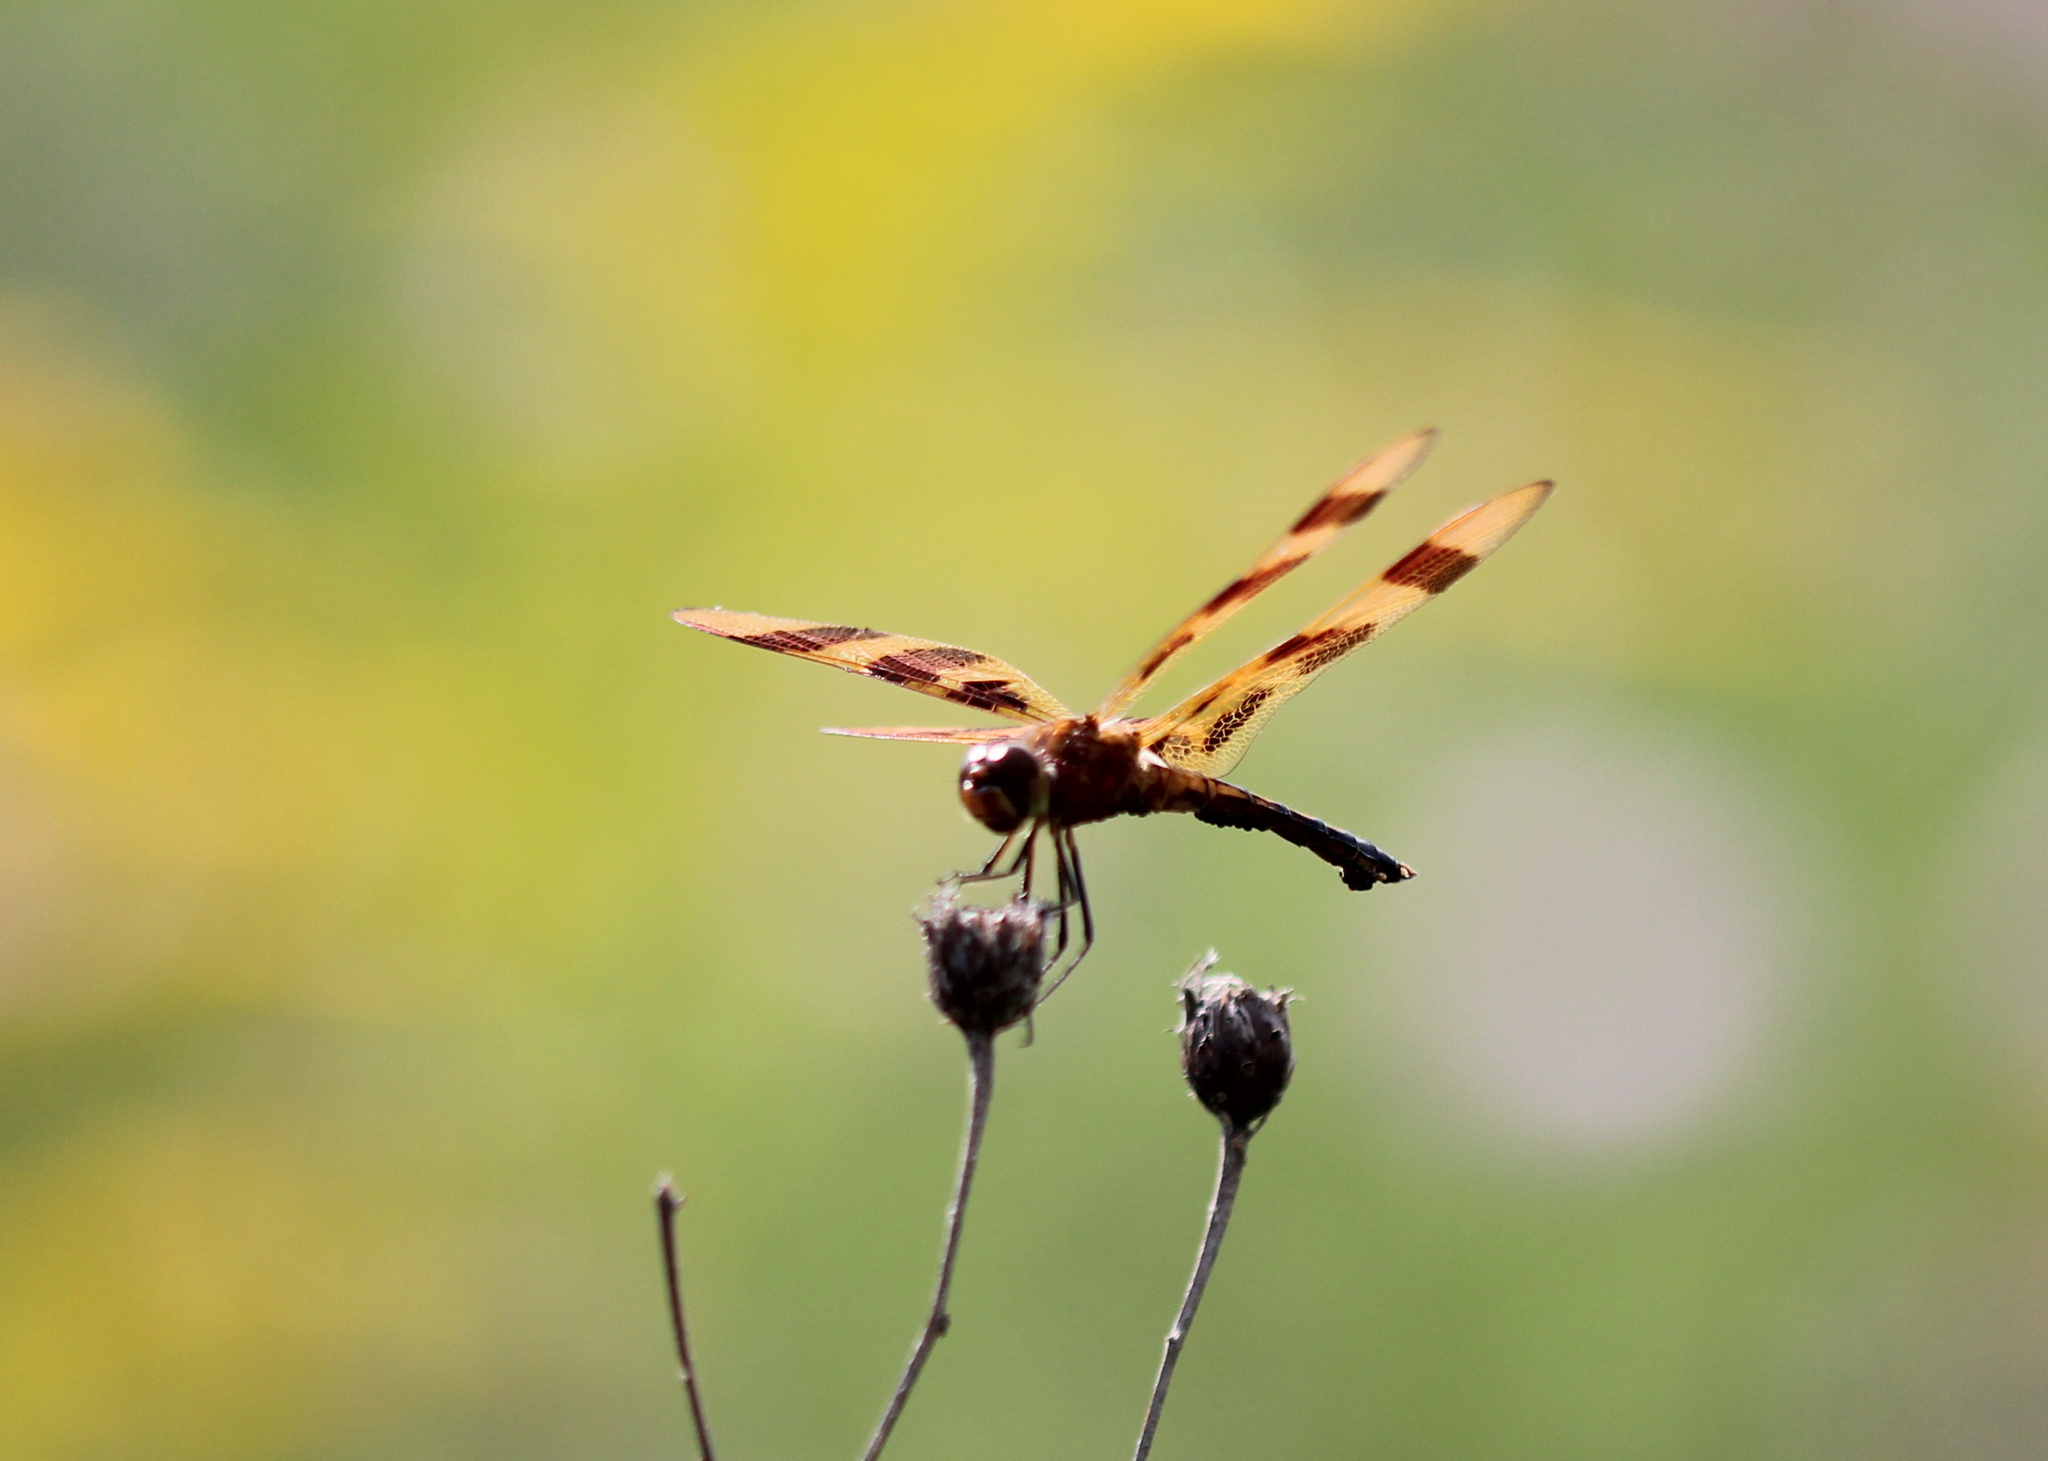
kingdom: Animalia
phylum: Arthropoda
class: Insecta
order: Odonata
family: Libellulidae
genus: Celithemis
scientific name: Celithemis eponina
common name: Halloween pennant
